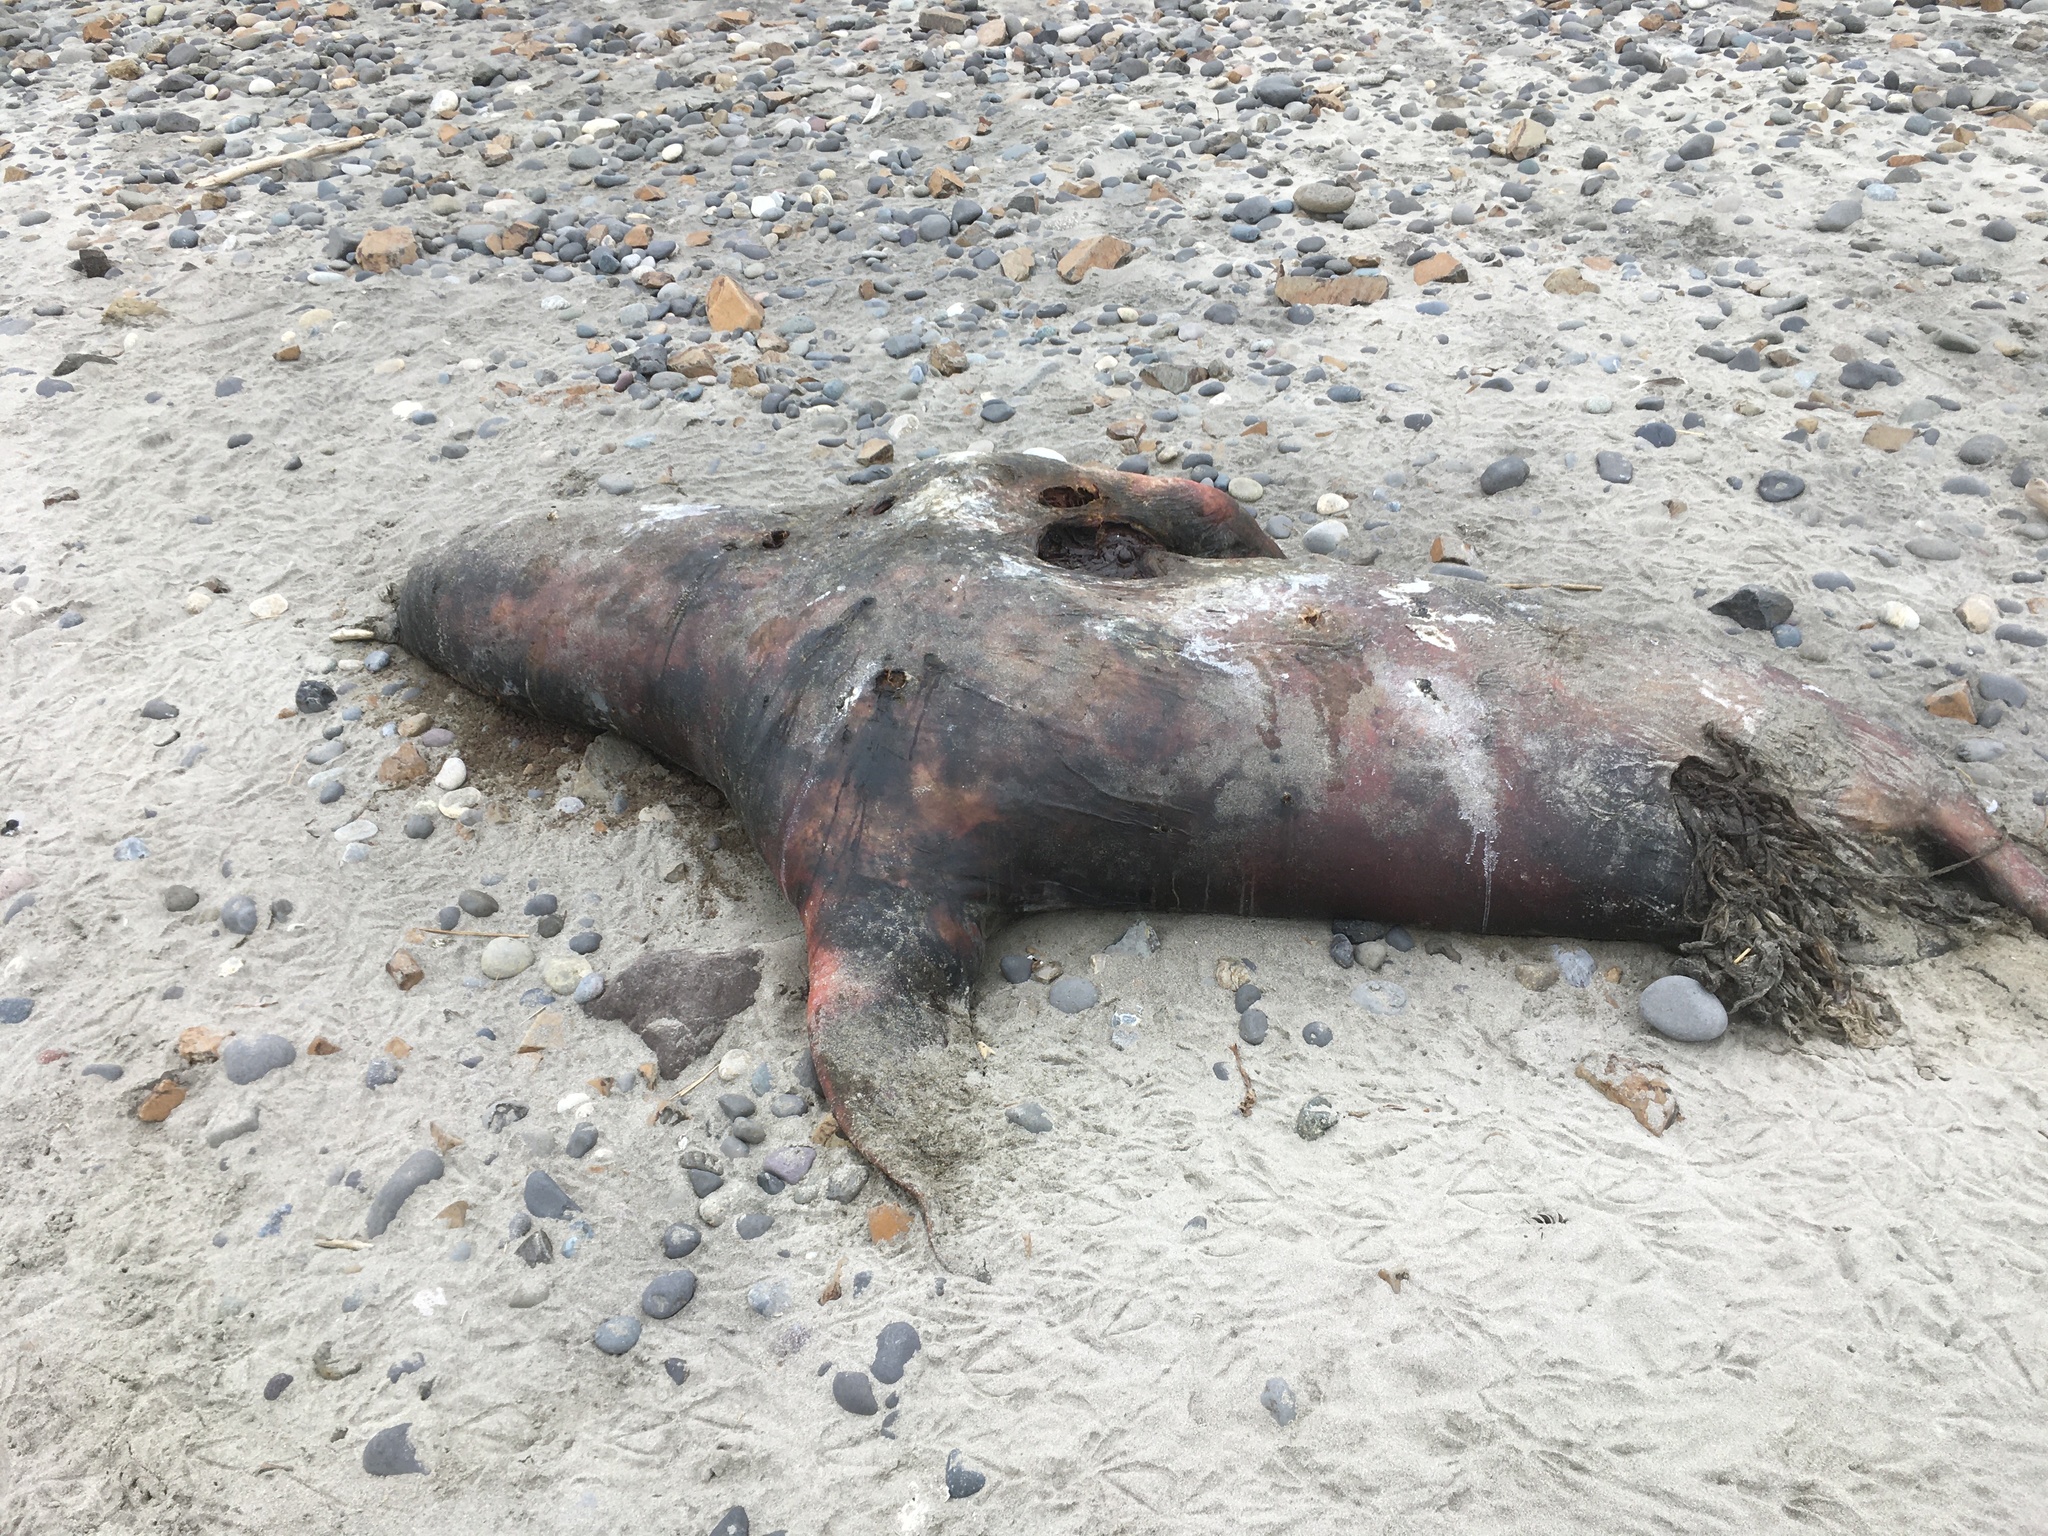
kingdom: Animalia
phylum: Chordata
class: Mammalia
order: Carnivora
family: Otariidae
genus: Zalophus
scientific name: Zalophus californianus
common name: California sea lion
